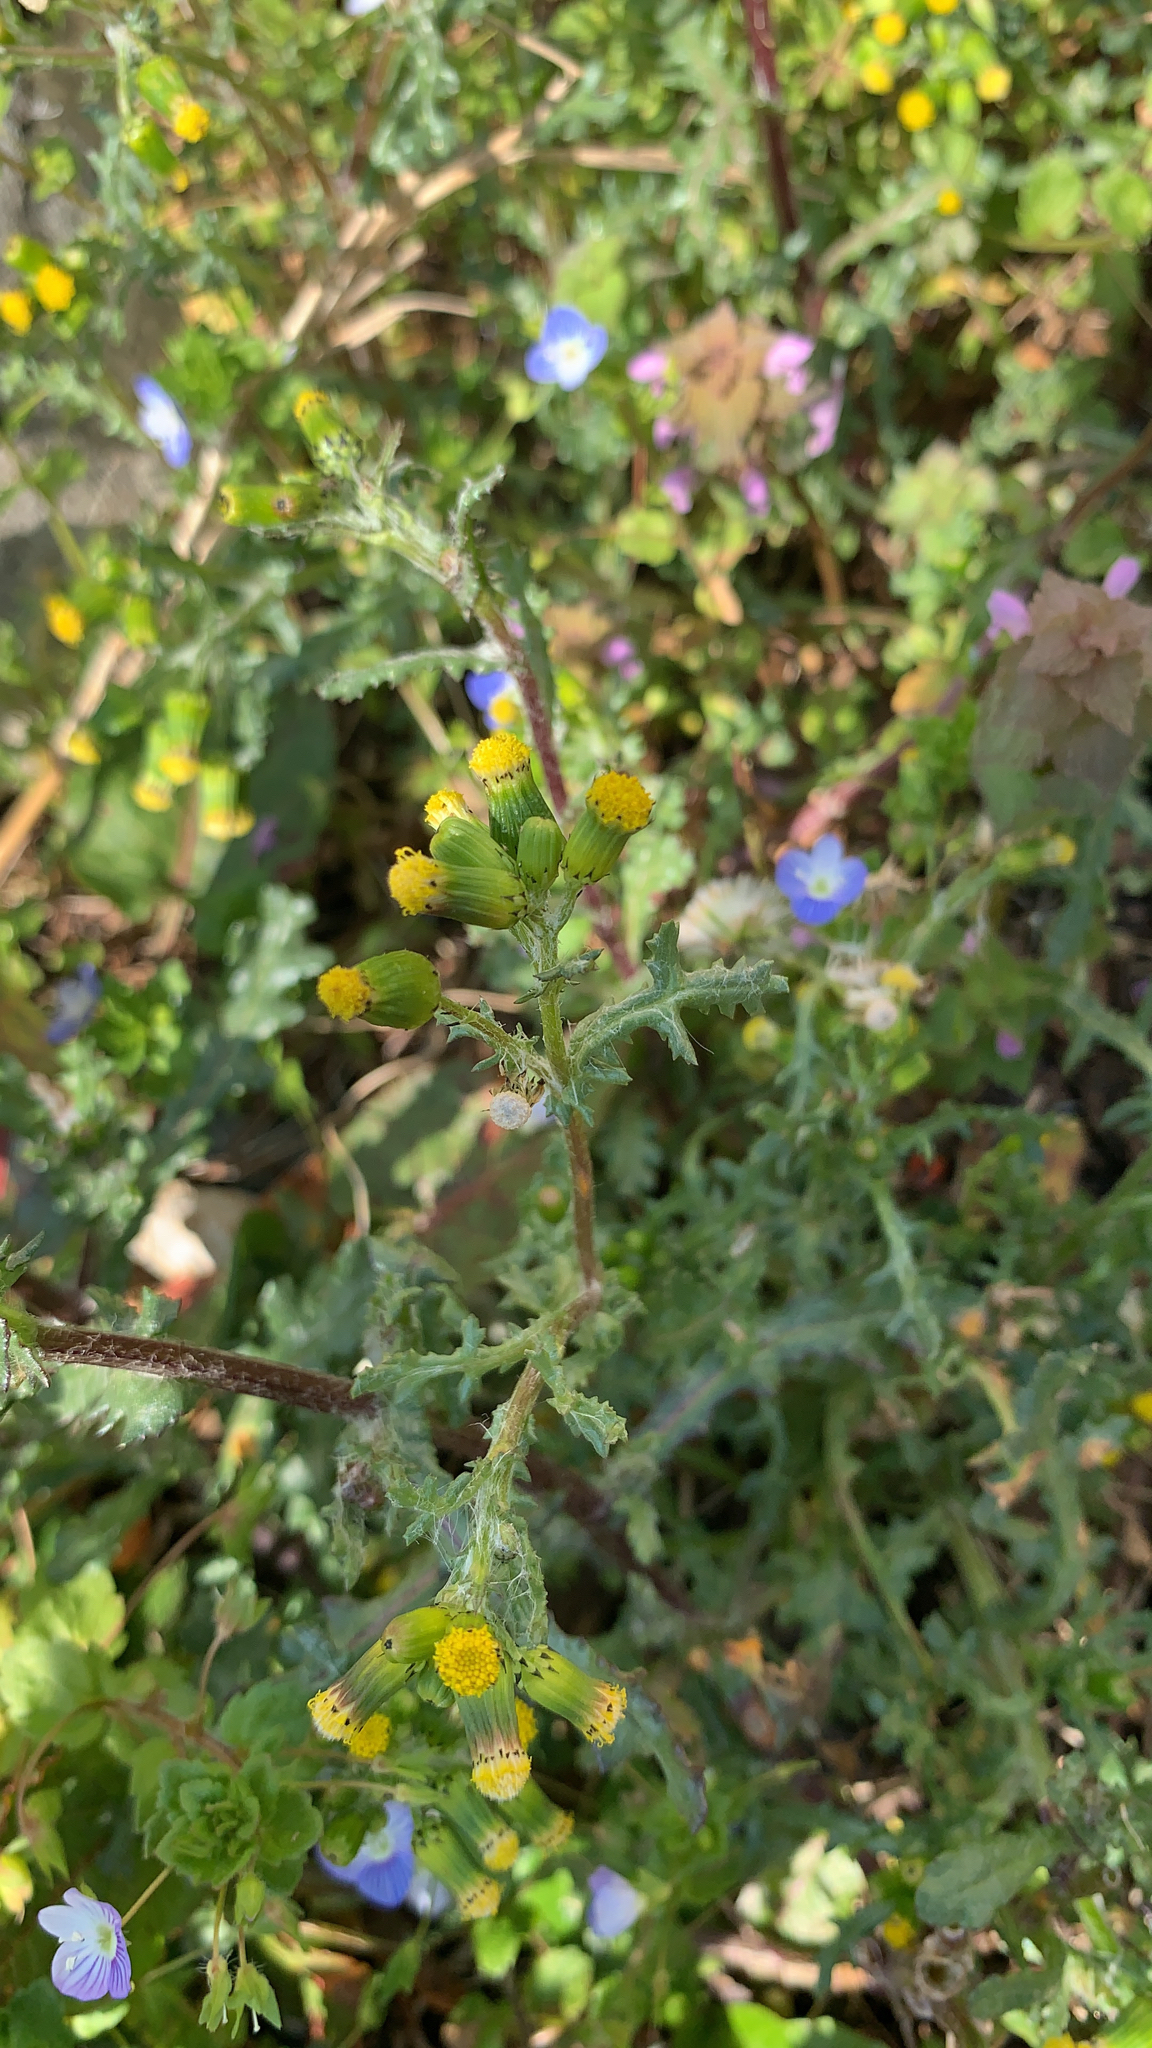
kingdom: Plantae
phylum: Tracheophyta
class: Magnoliopsida
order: Asterales
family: Asteraceae
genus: Senecio
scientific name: Senecio vulgaris
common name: Old-man-in-the-spring
